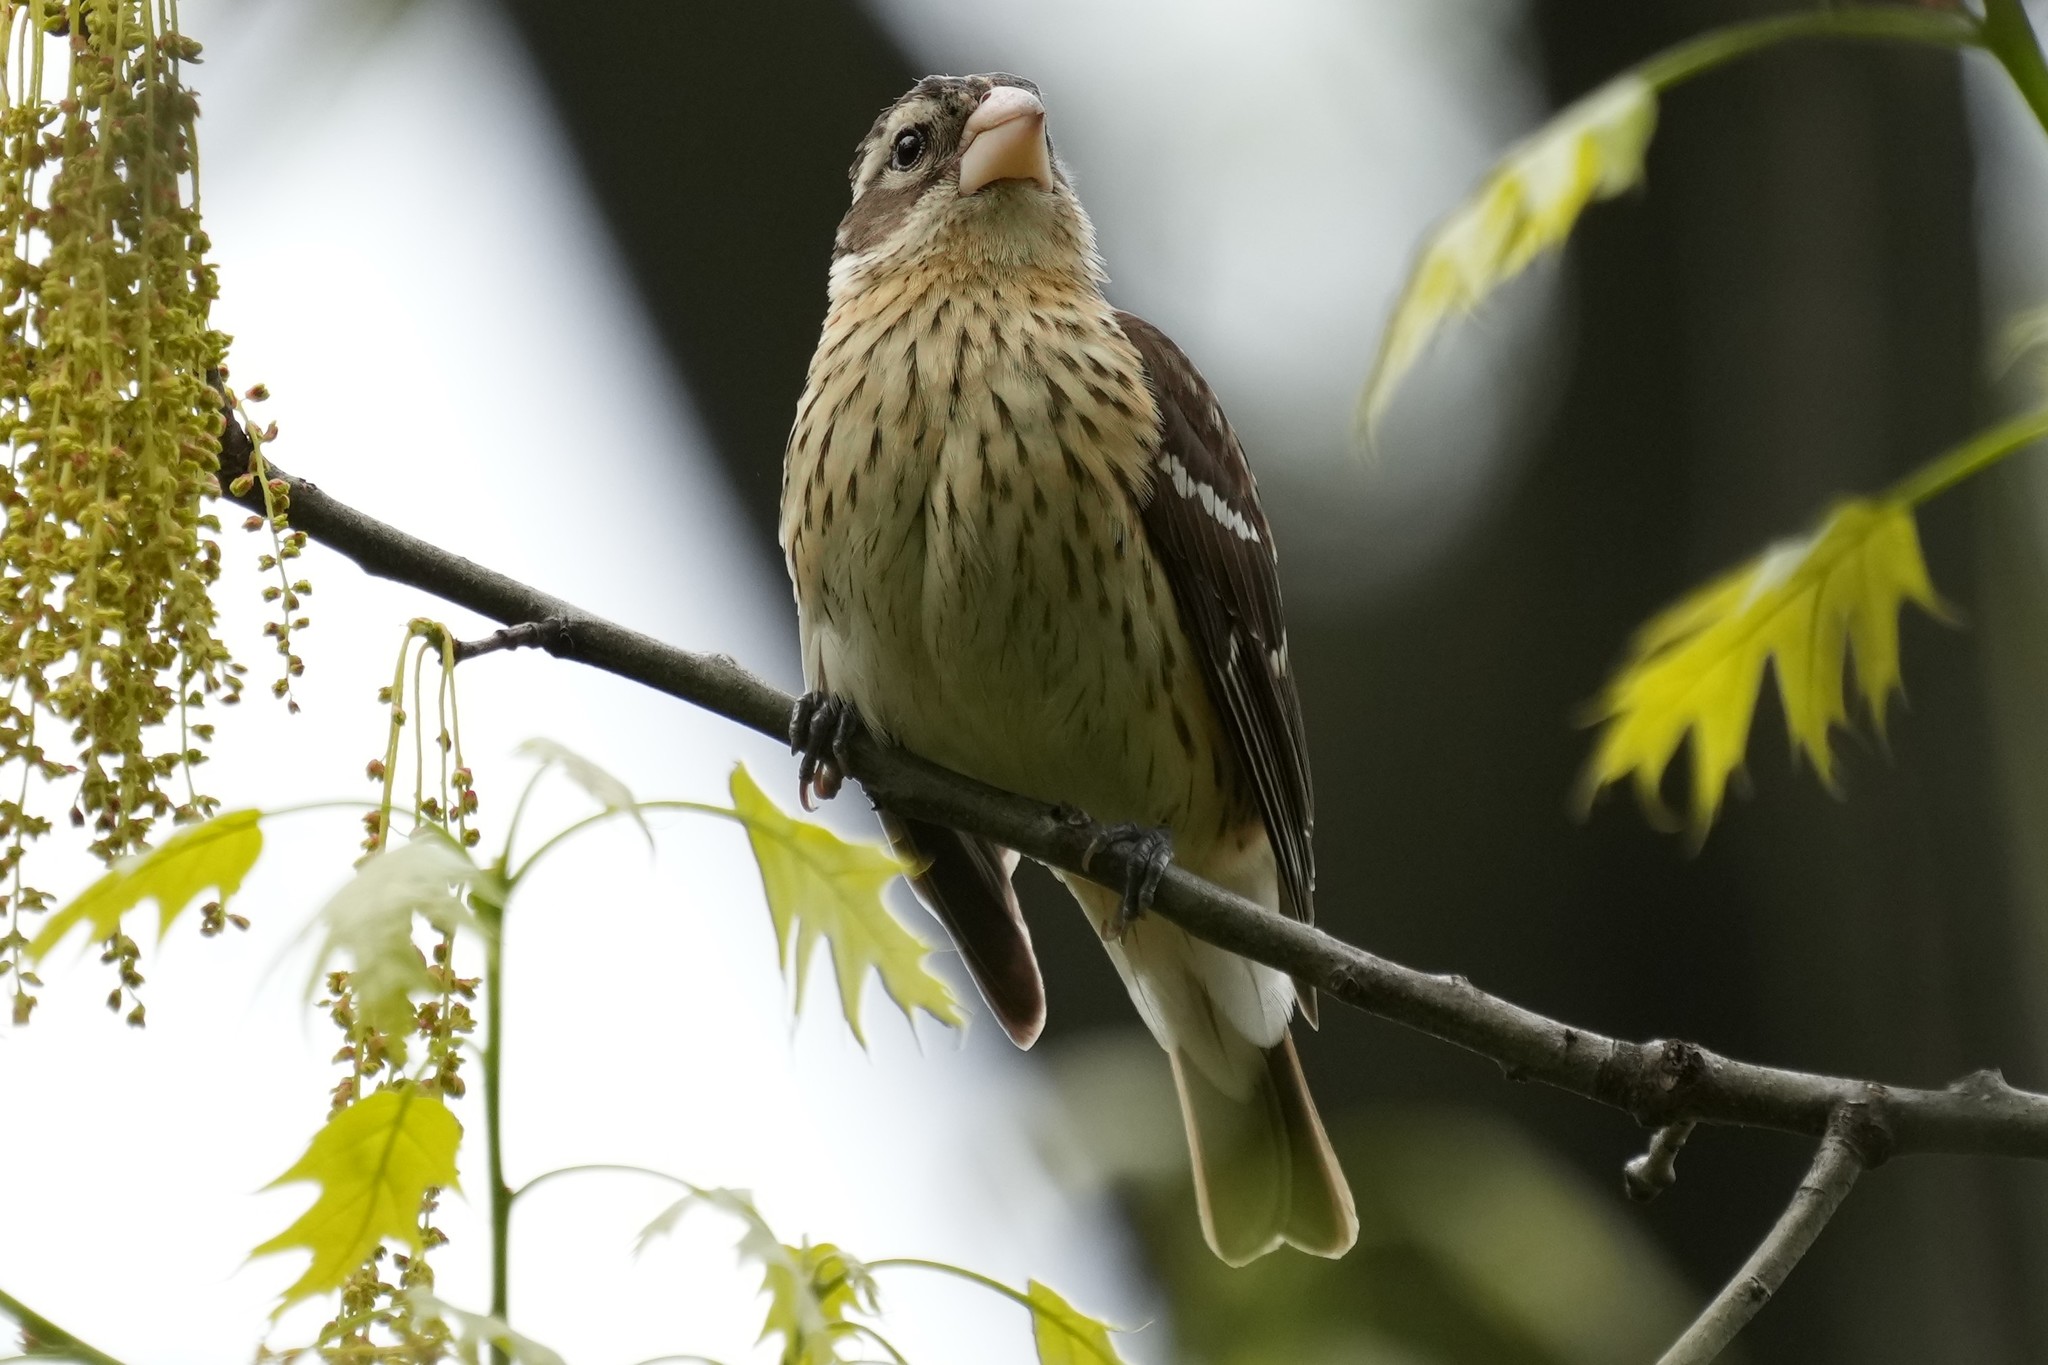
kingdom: Animalia
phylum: Chordata
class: Aves
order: Passeriformes
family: Cardinalidae
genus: Pheucticus
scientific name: Pheucticus ludovicianus
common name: Rose-breasted grosbeak
